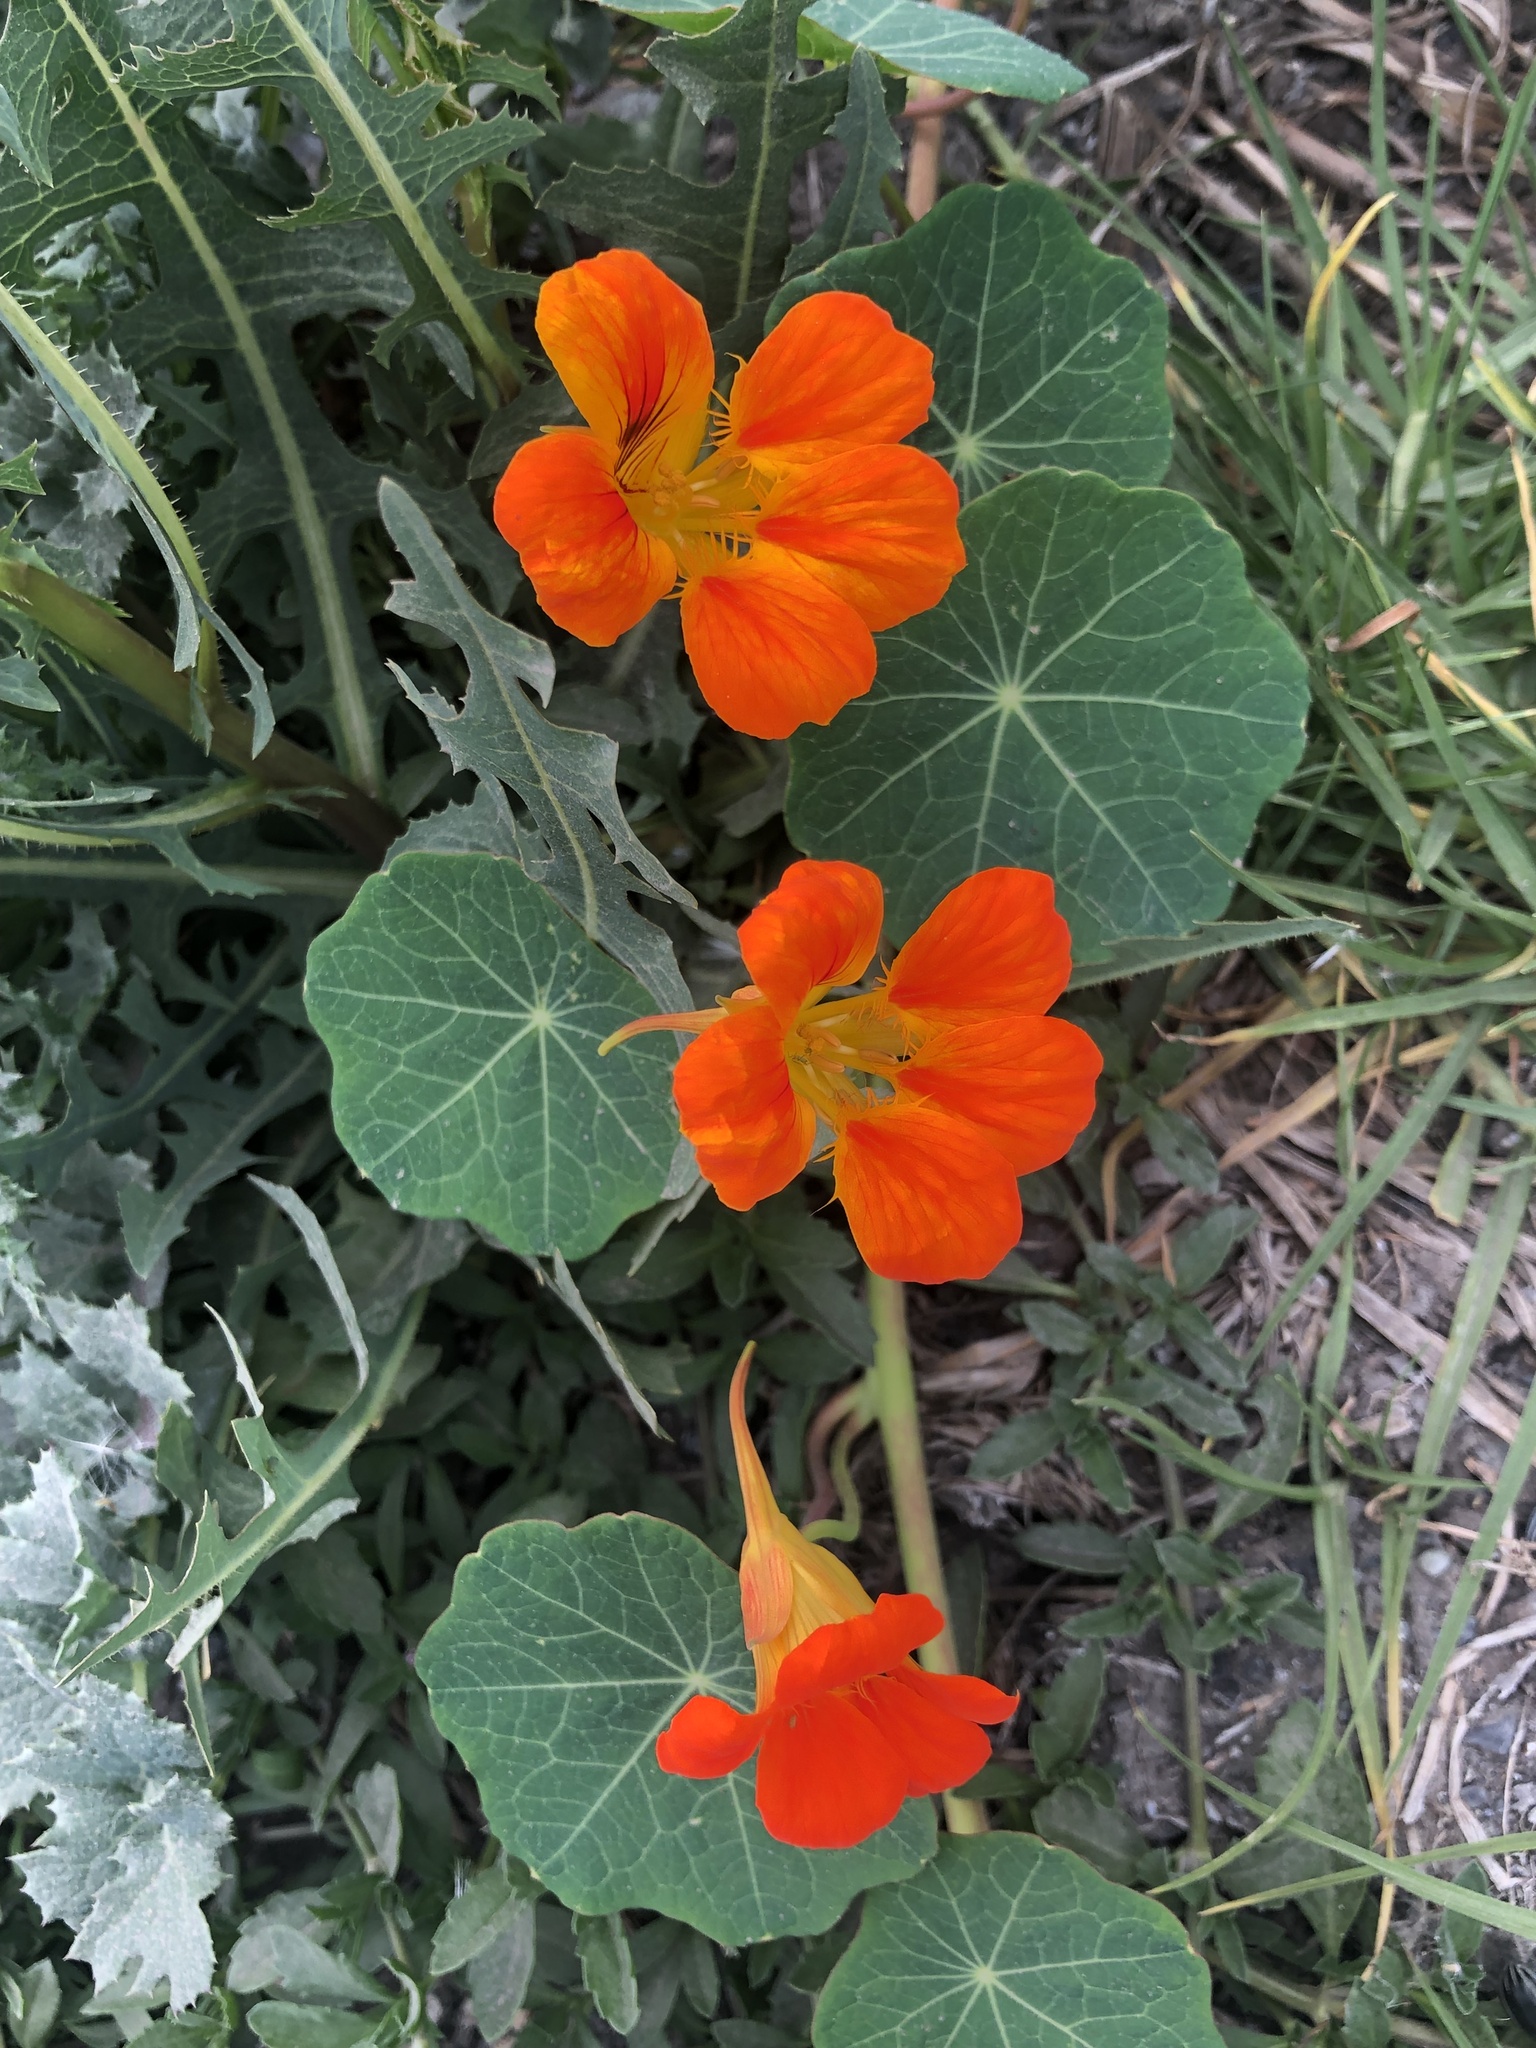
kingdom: Plantae
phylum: Tracheophyta
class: Magnoliopsida
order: Brassicales
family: Tropaeolaceae
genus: Tropaeolum
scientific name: Tropaeolum majus
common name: Nasturtium
